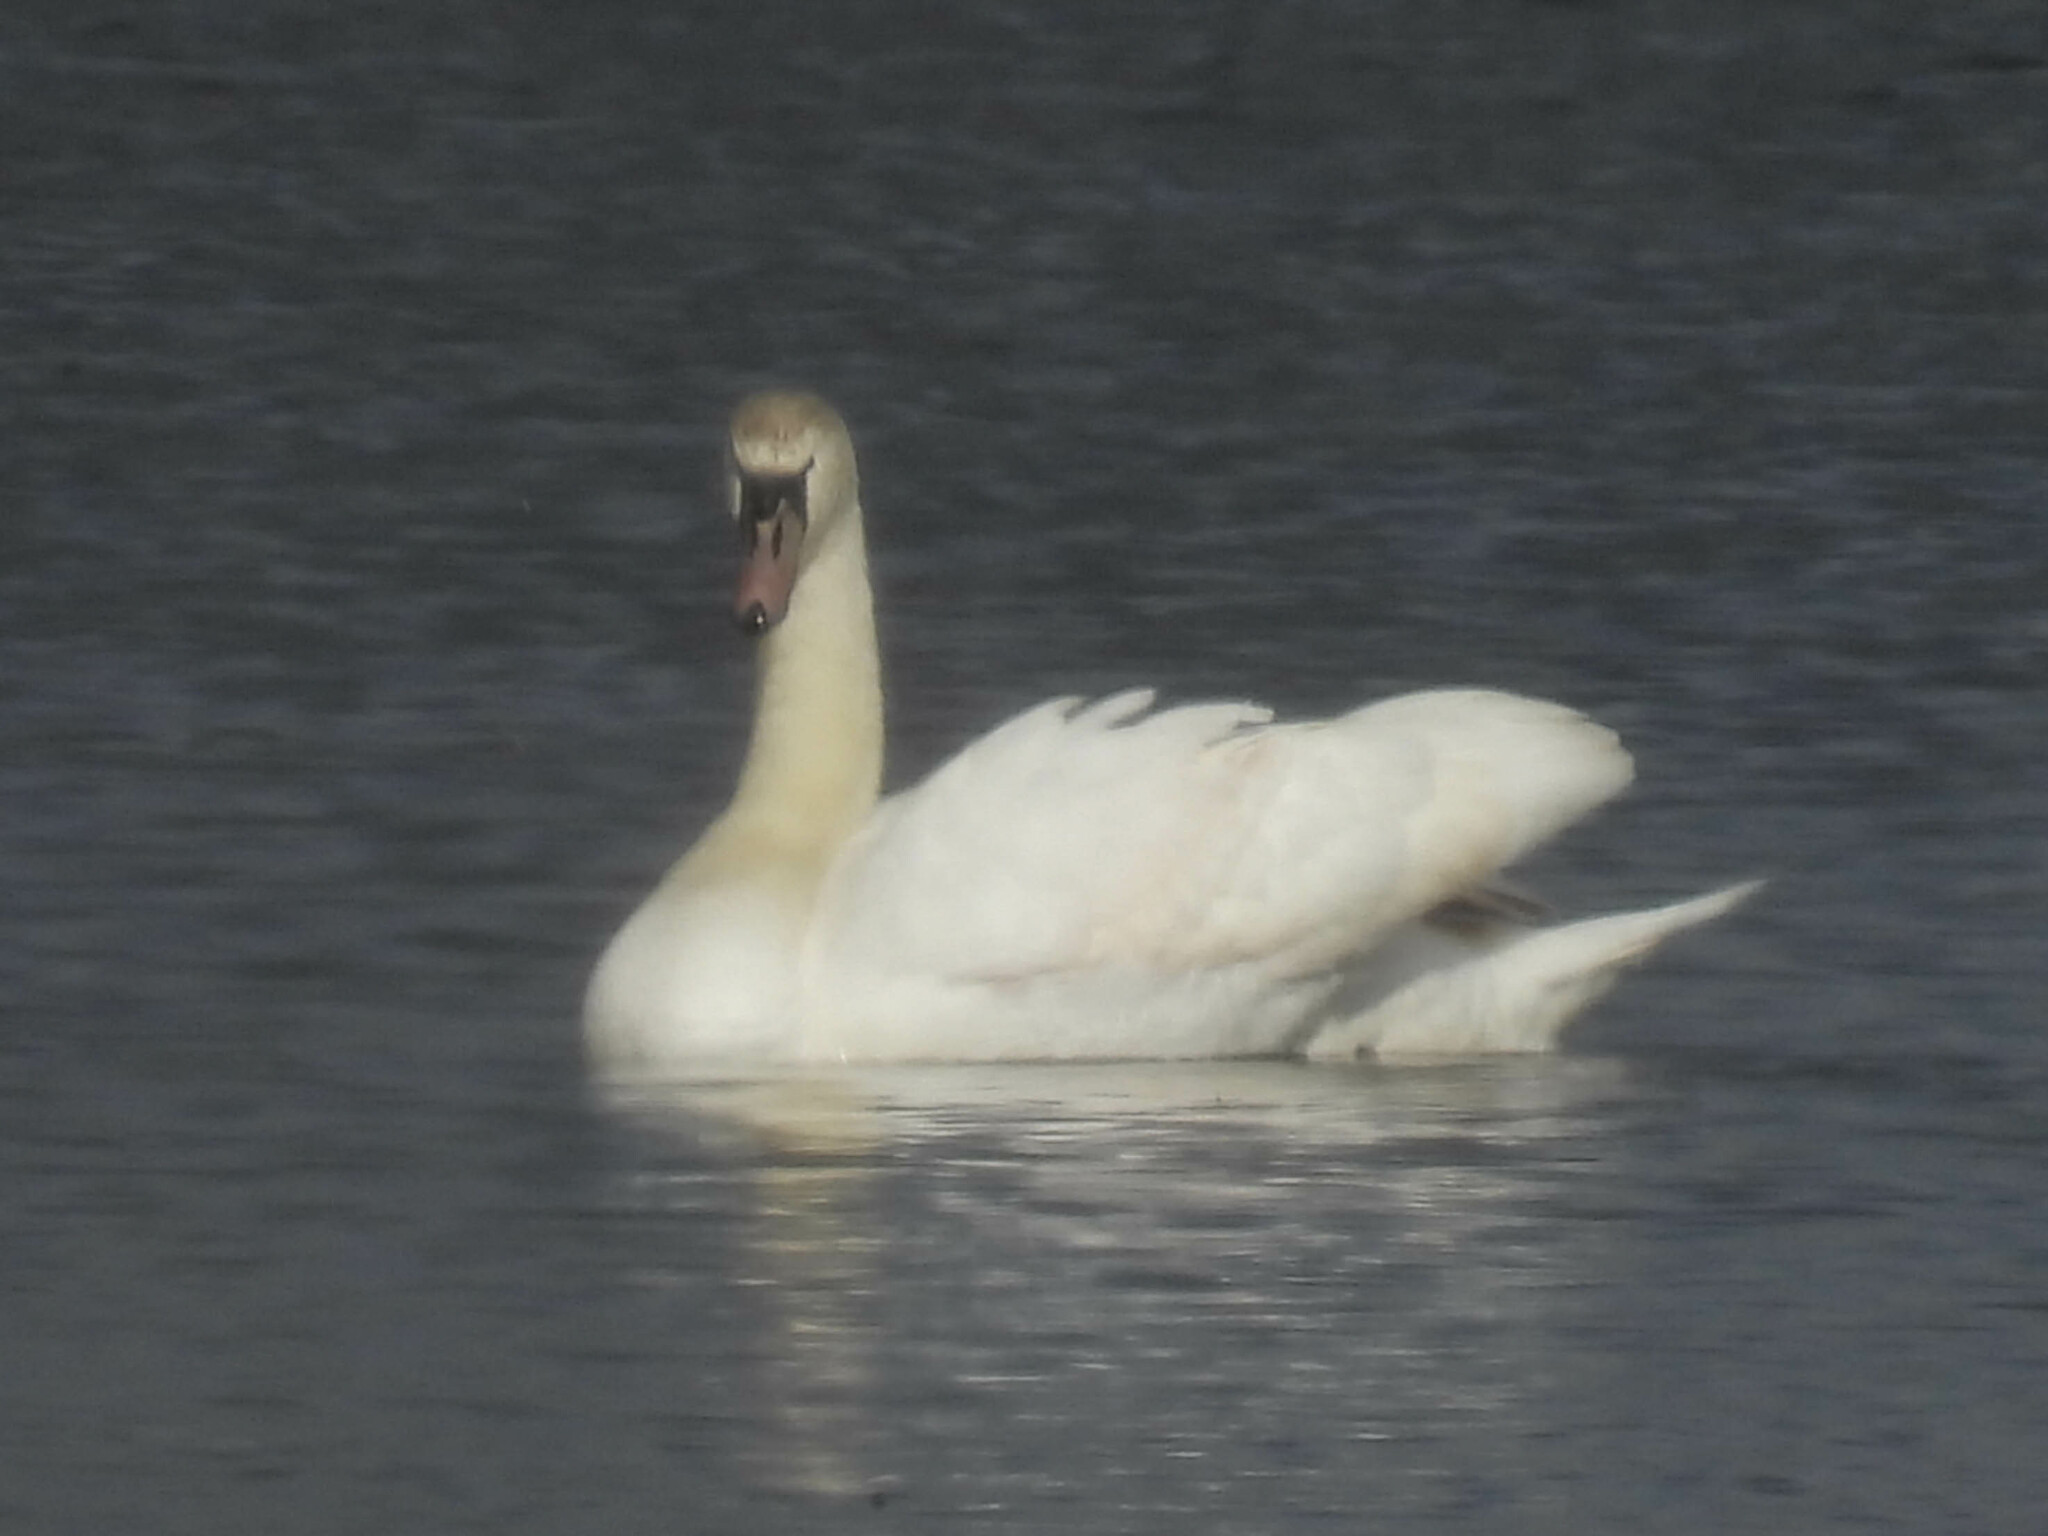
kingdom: Animalia
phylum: Chordata
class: Aves
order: Anseriformes
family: Anatidae
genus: Cygnus
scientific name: Cygnus olor
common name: Mute swan
